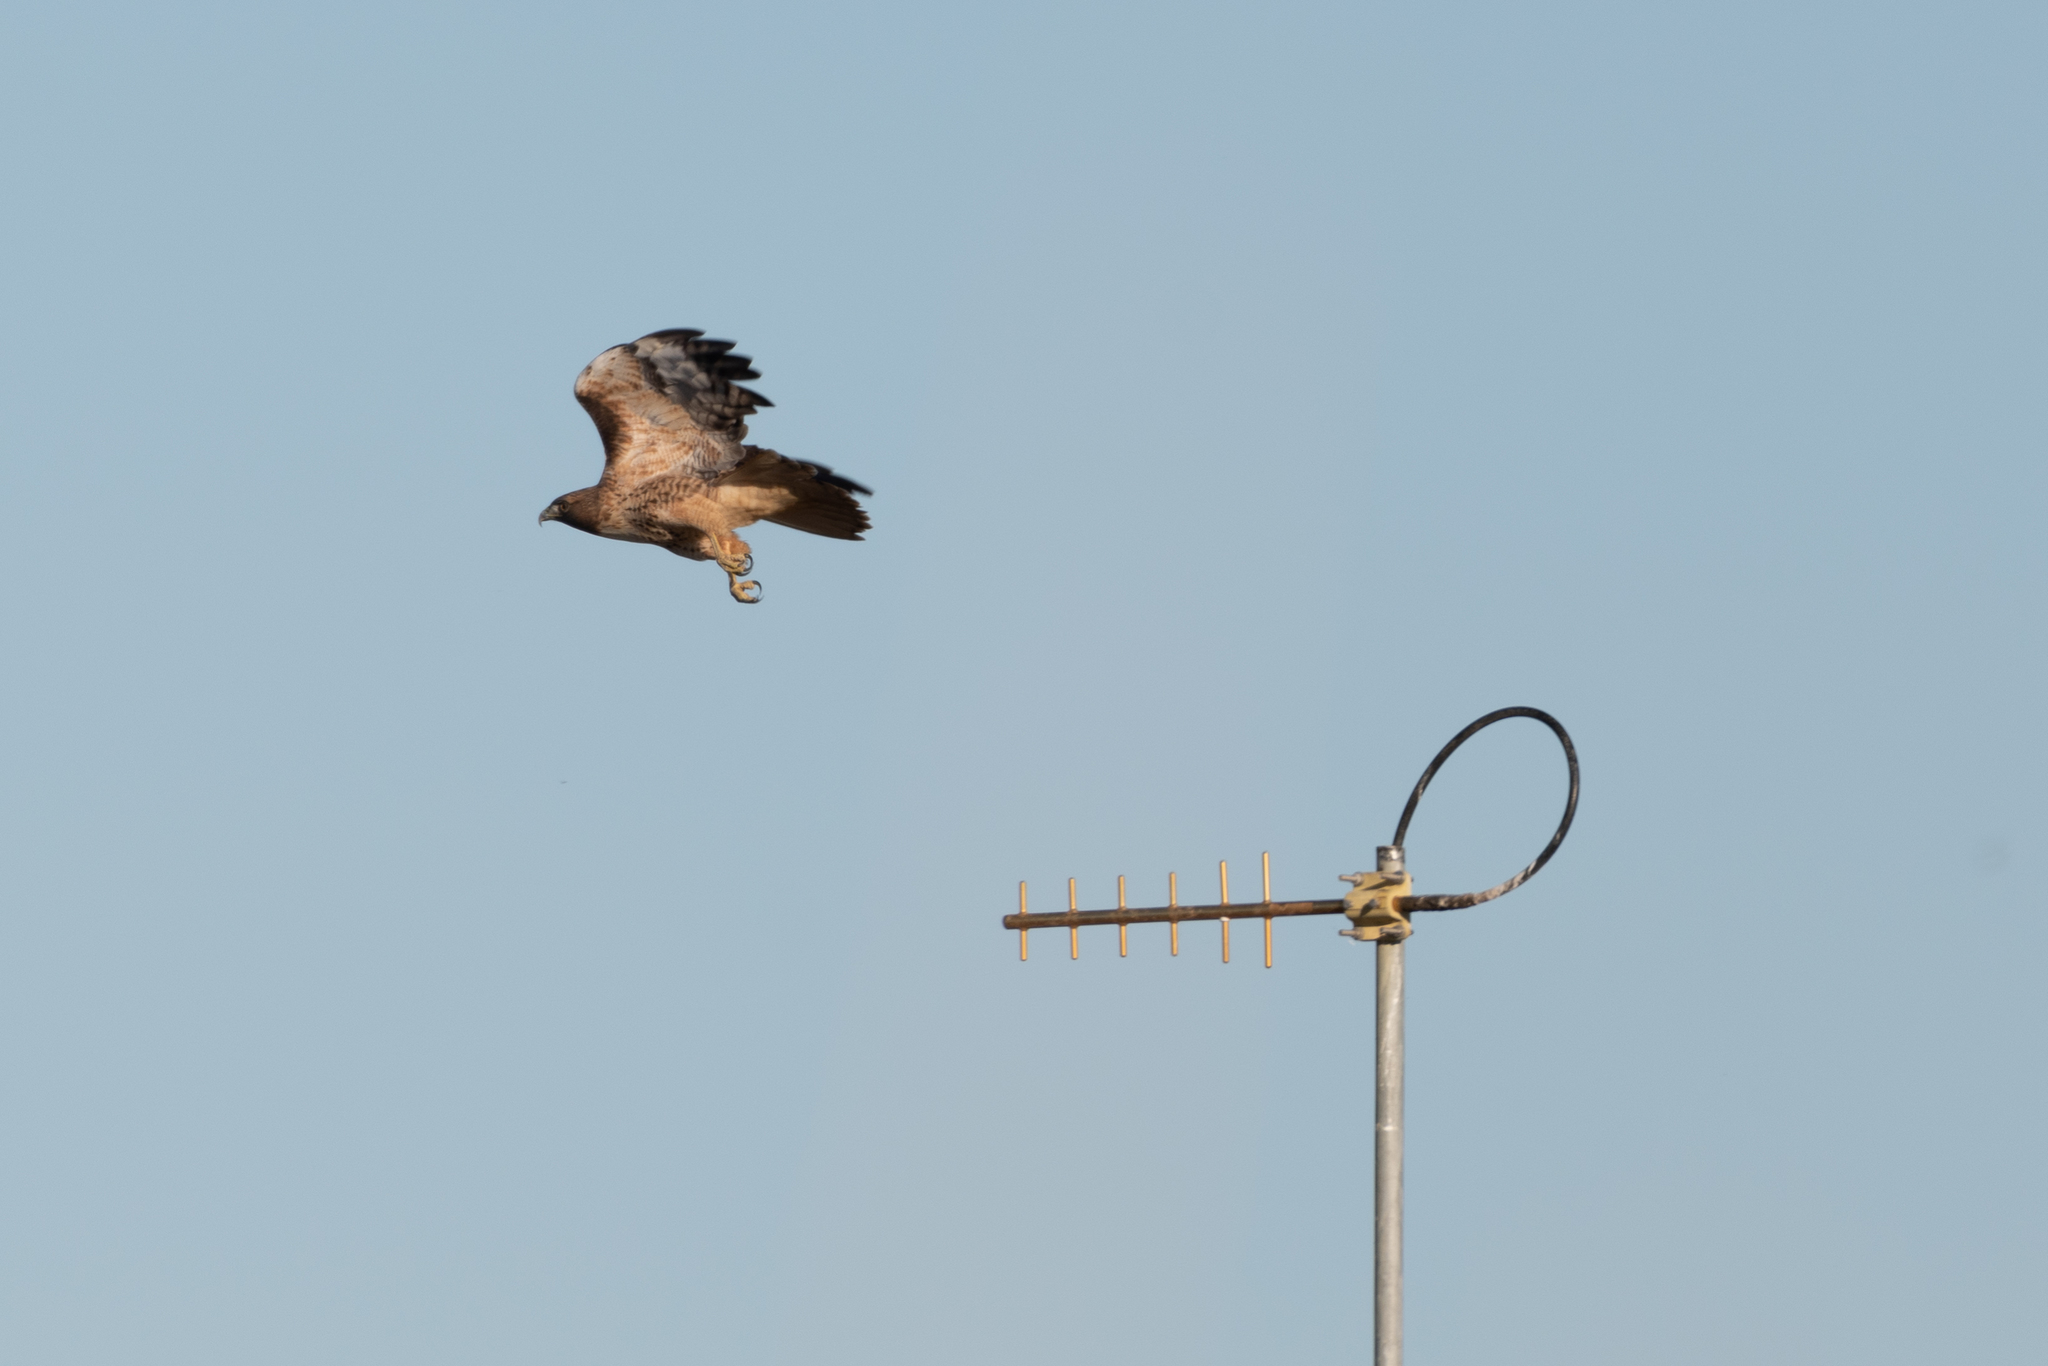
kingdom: Animalia
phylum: Chordata
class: Aves
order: Accipitriformes
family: Accipitridae
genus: Buteo
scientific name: Buteo jamaicensis
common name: Red-tailed hawk
